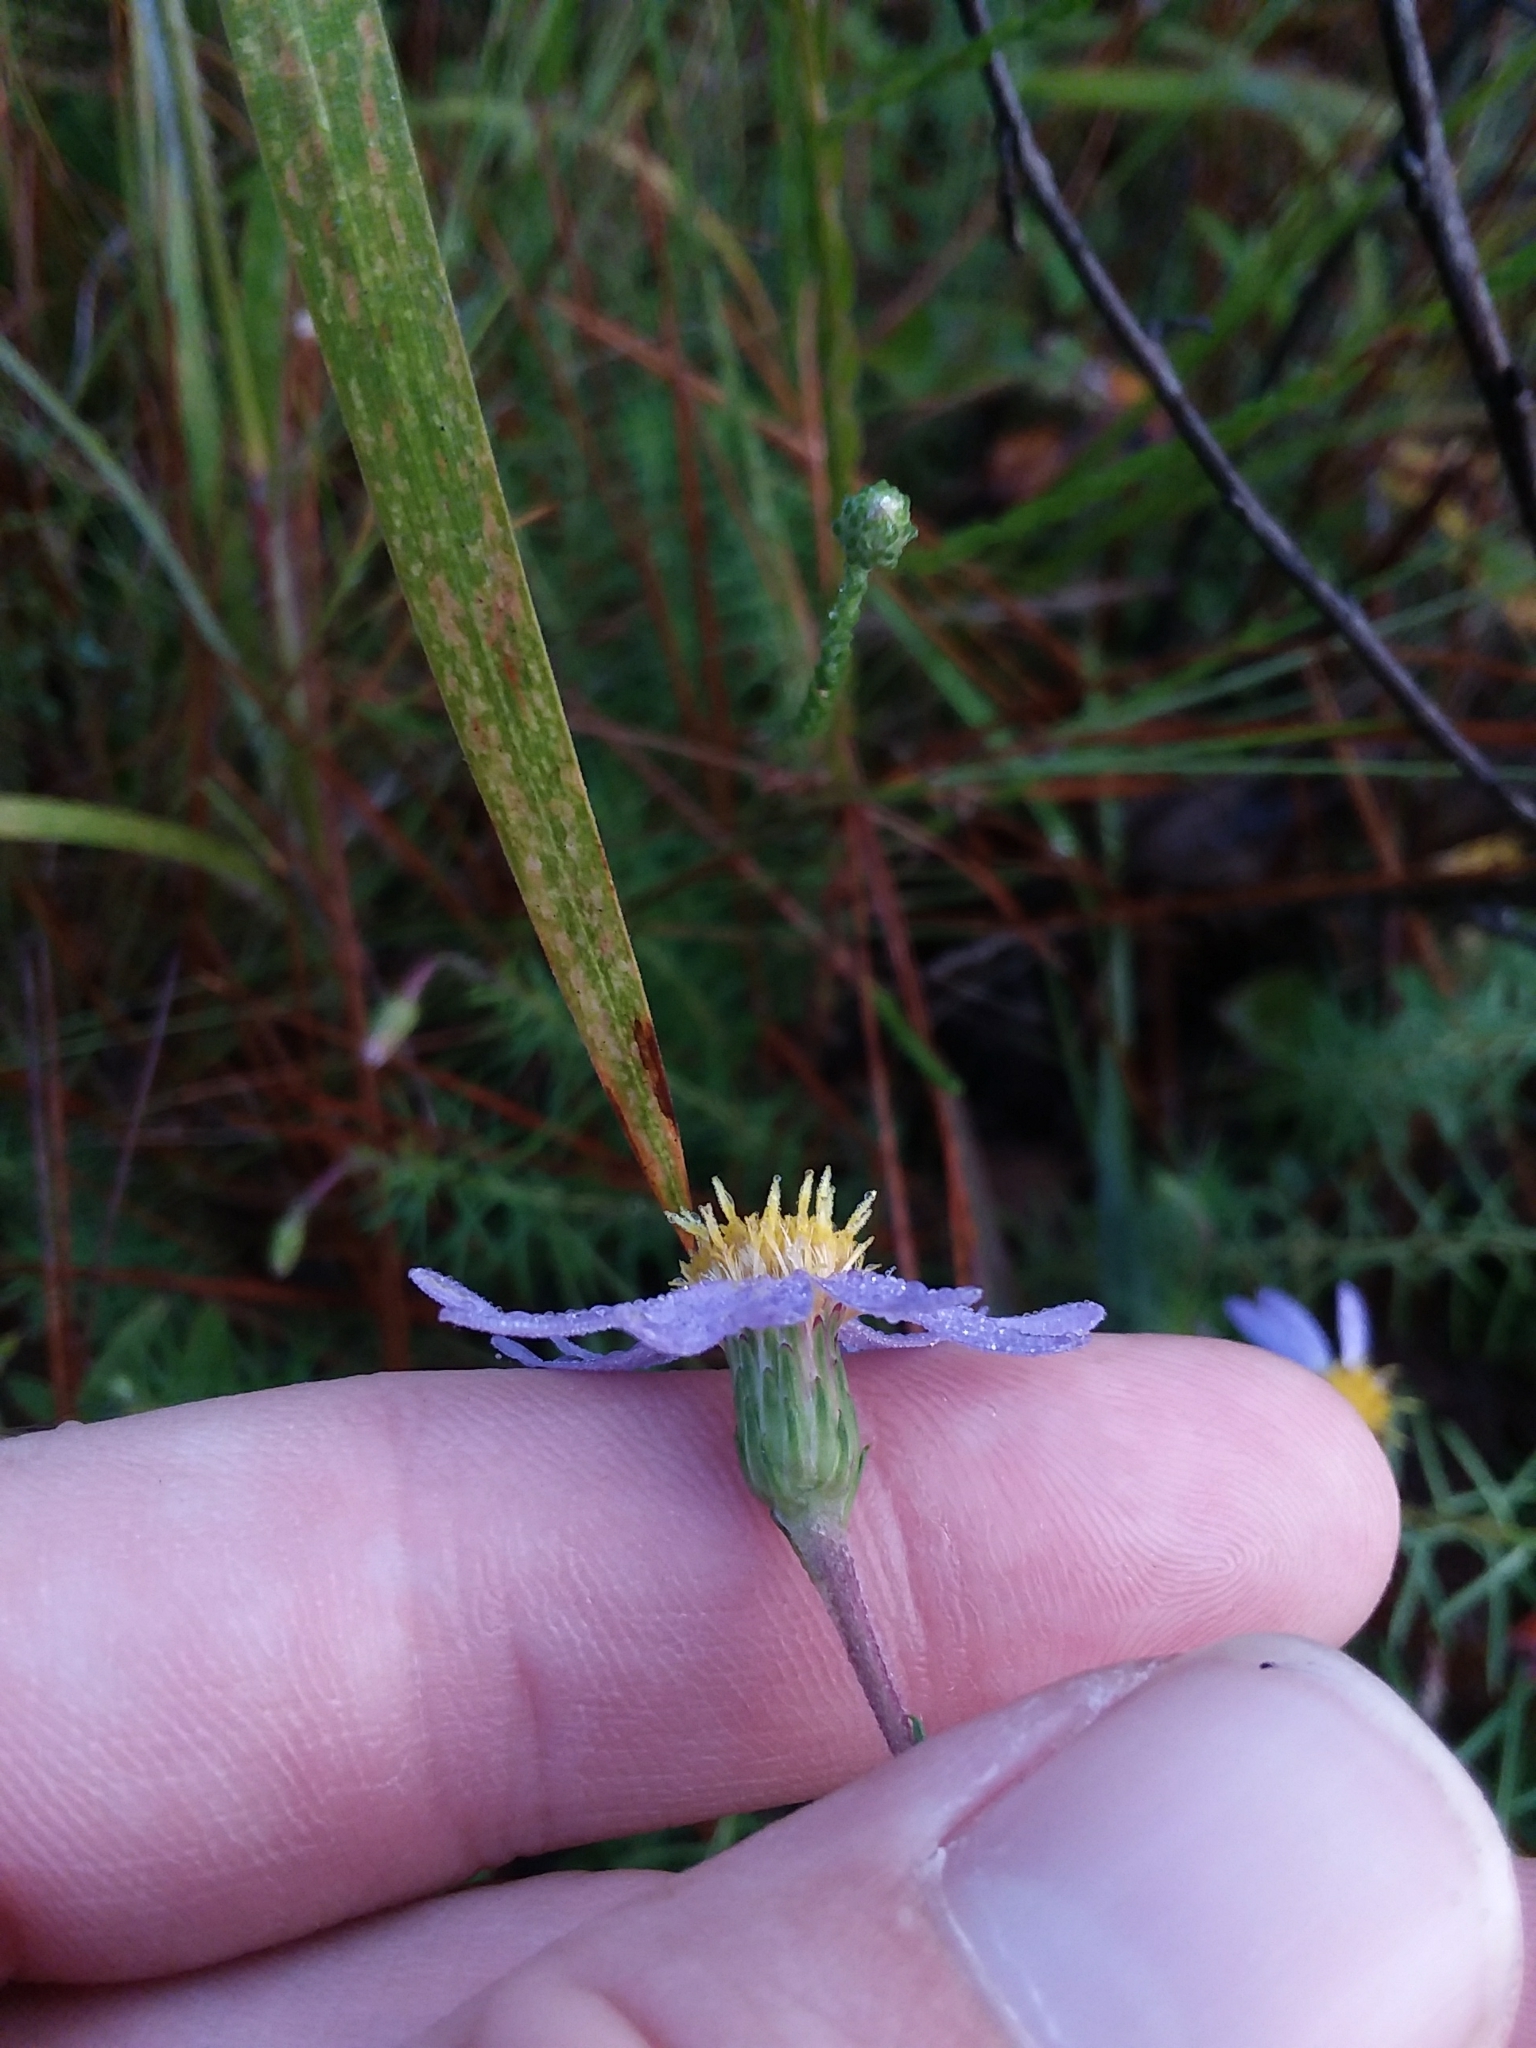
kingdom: Plantae
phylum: Tracheophyta
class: Magnoliopsida
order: Asterales
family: Asteraceae
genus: Ionactis
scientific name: Ionactis repens
